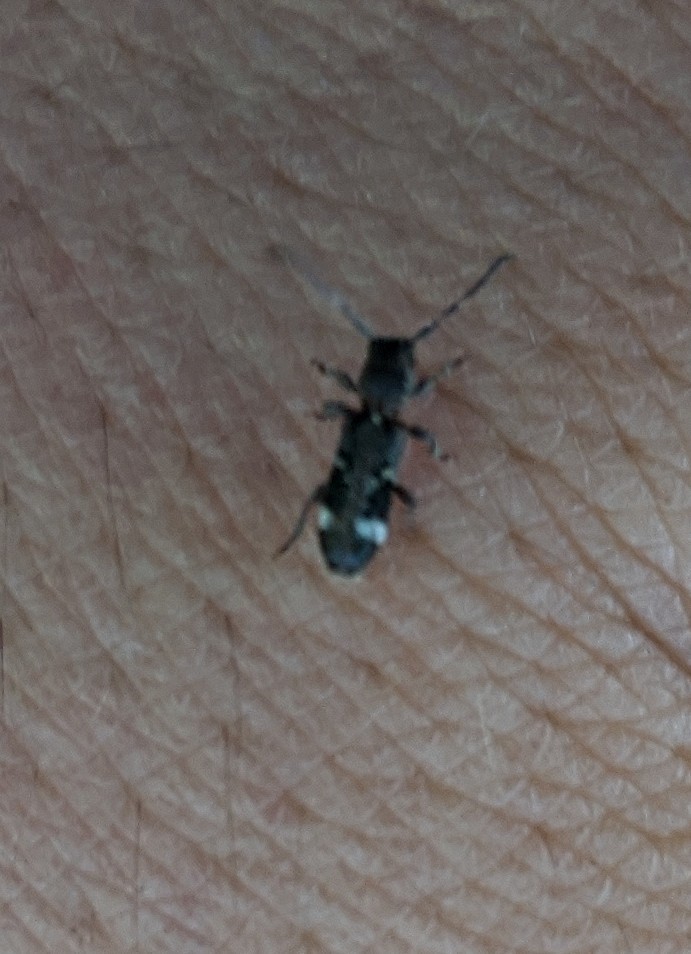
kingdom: Animalia
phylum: Arthropoda
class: Insecta
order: Coleoptera
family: Cerambycidae
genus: Psenocerus
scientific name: Psenocerus supernotatus
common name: Currant-tip borer
